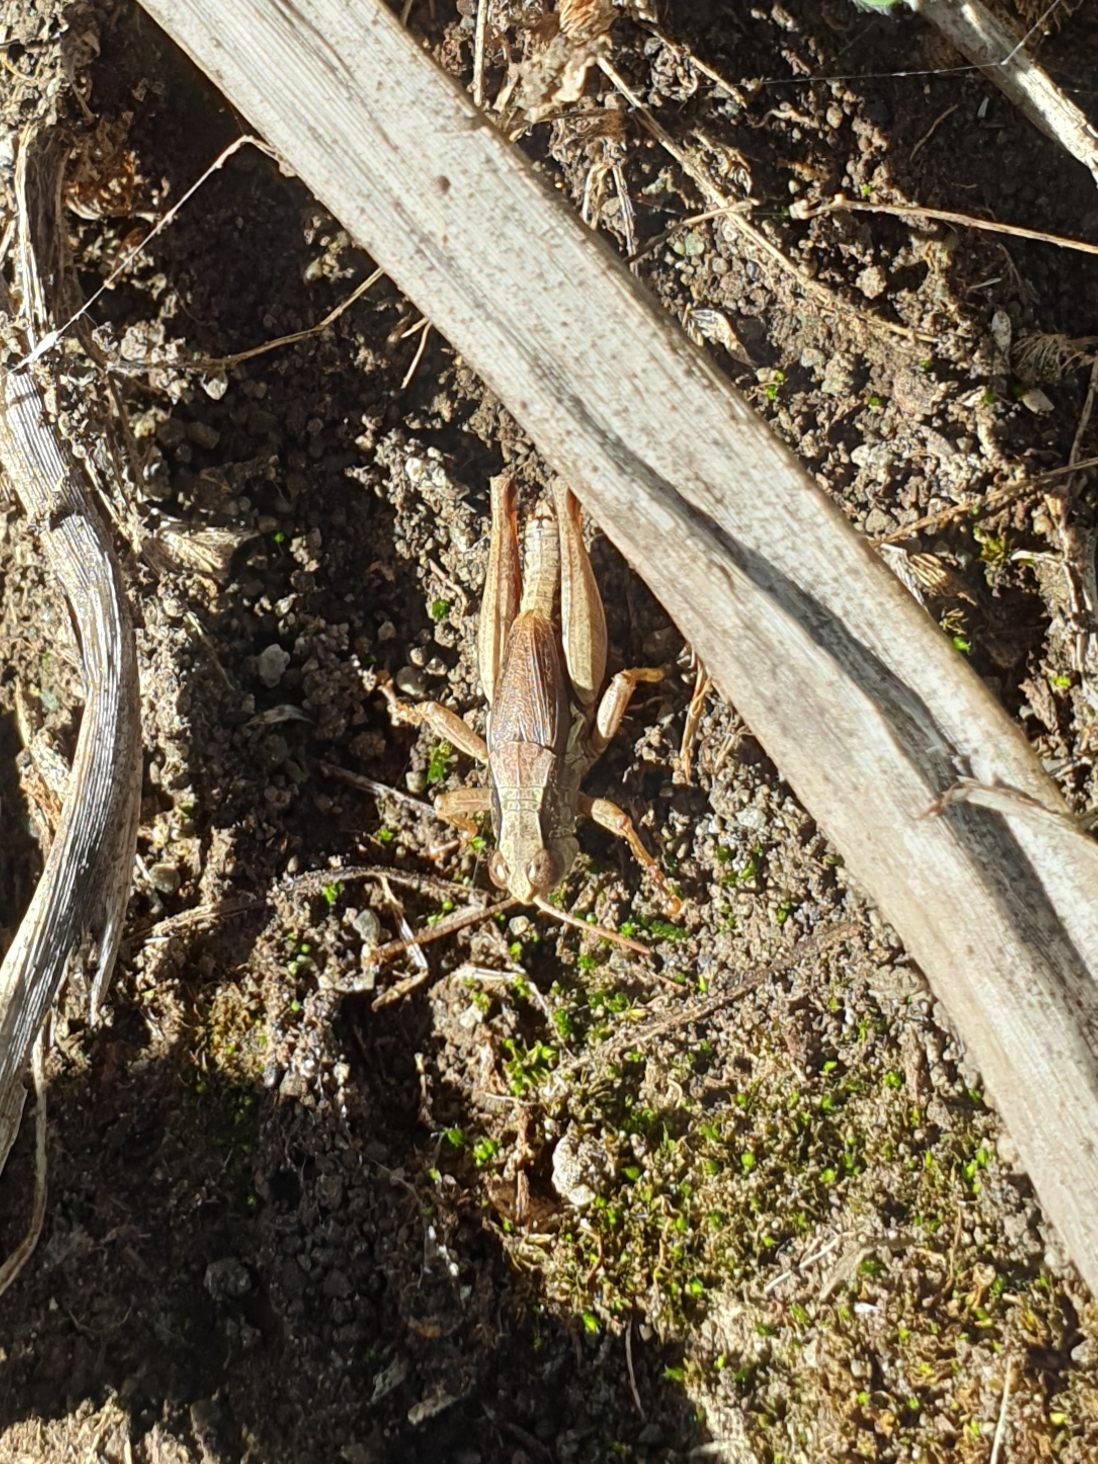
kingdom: Animalia
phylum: Arthropoda
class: Insecta
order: Orthoptera
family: Acrididae
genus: Phaulacridium
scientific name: Phaulacridium marginale
